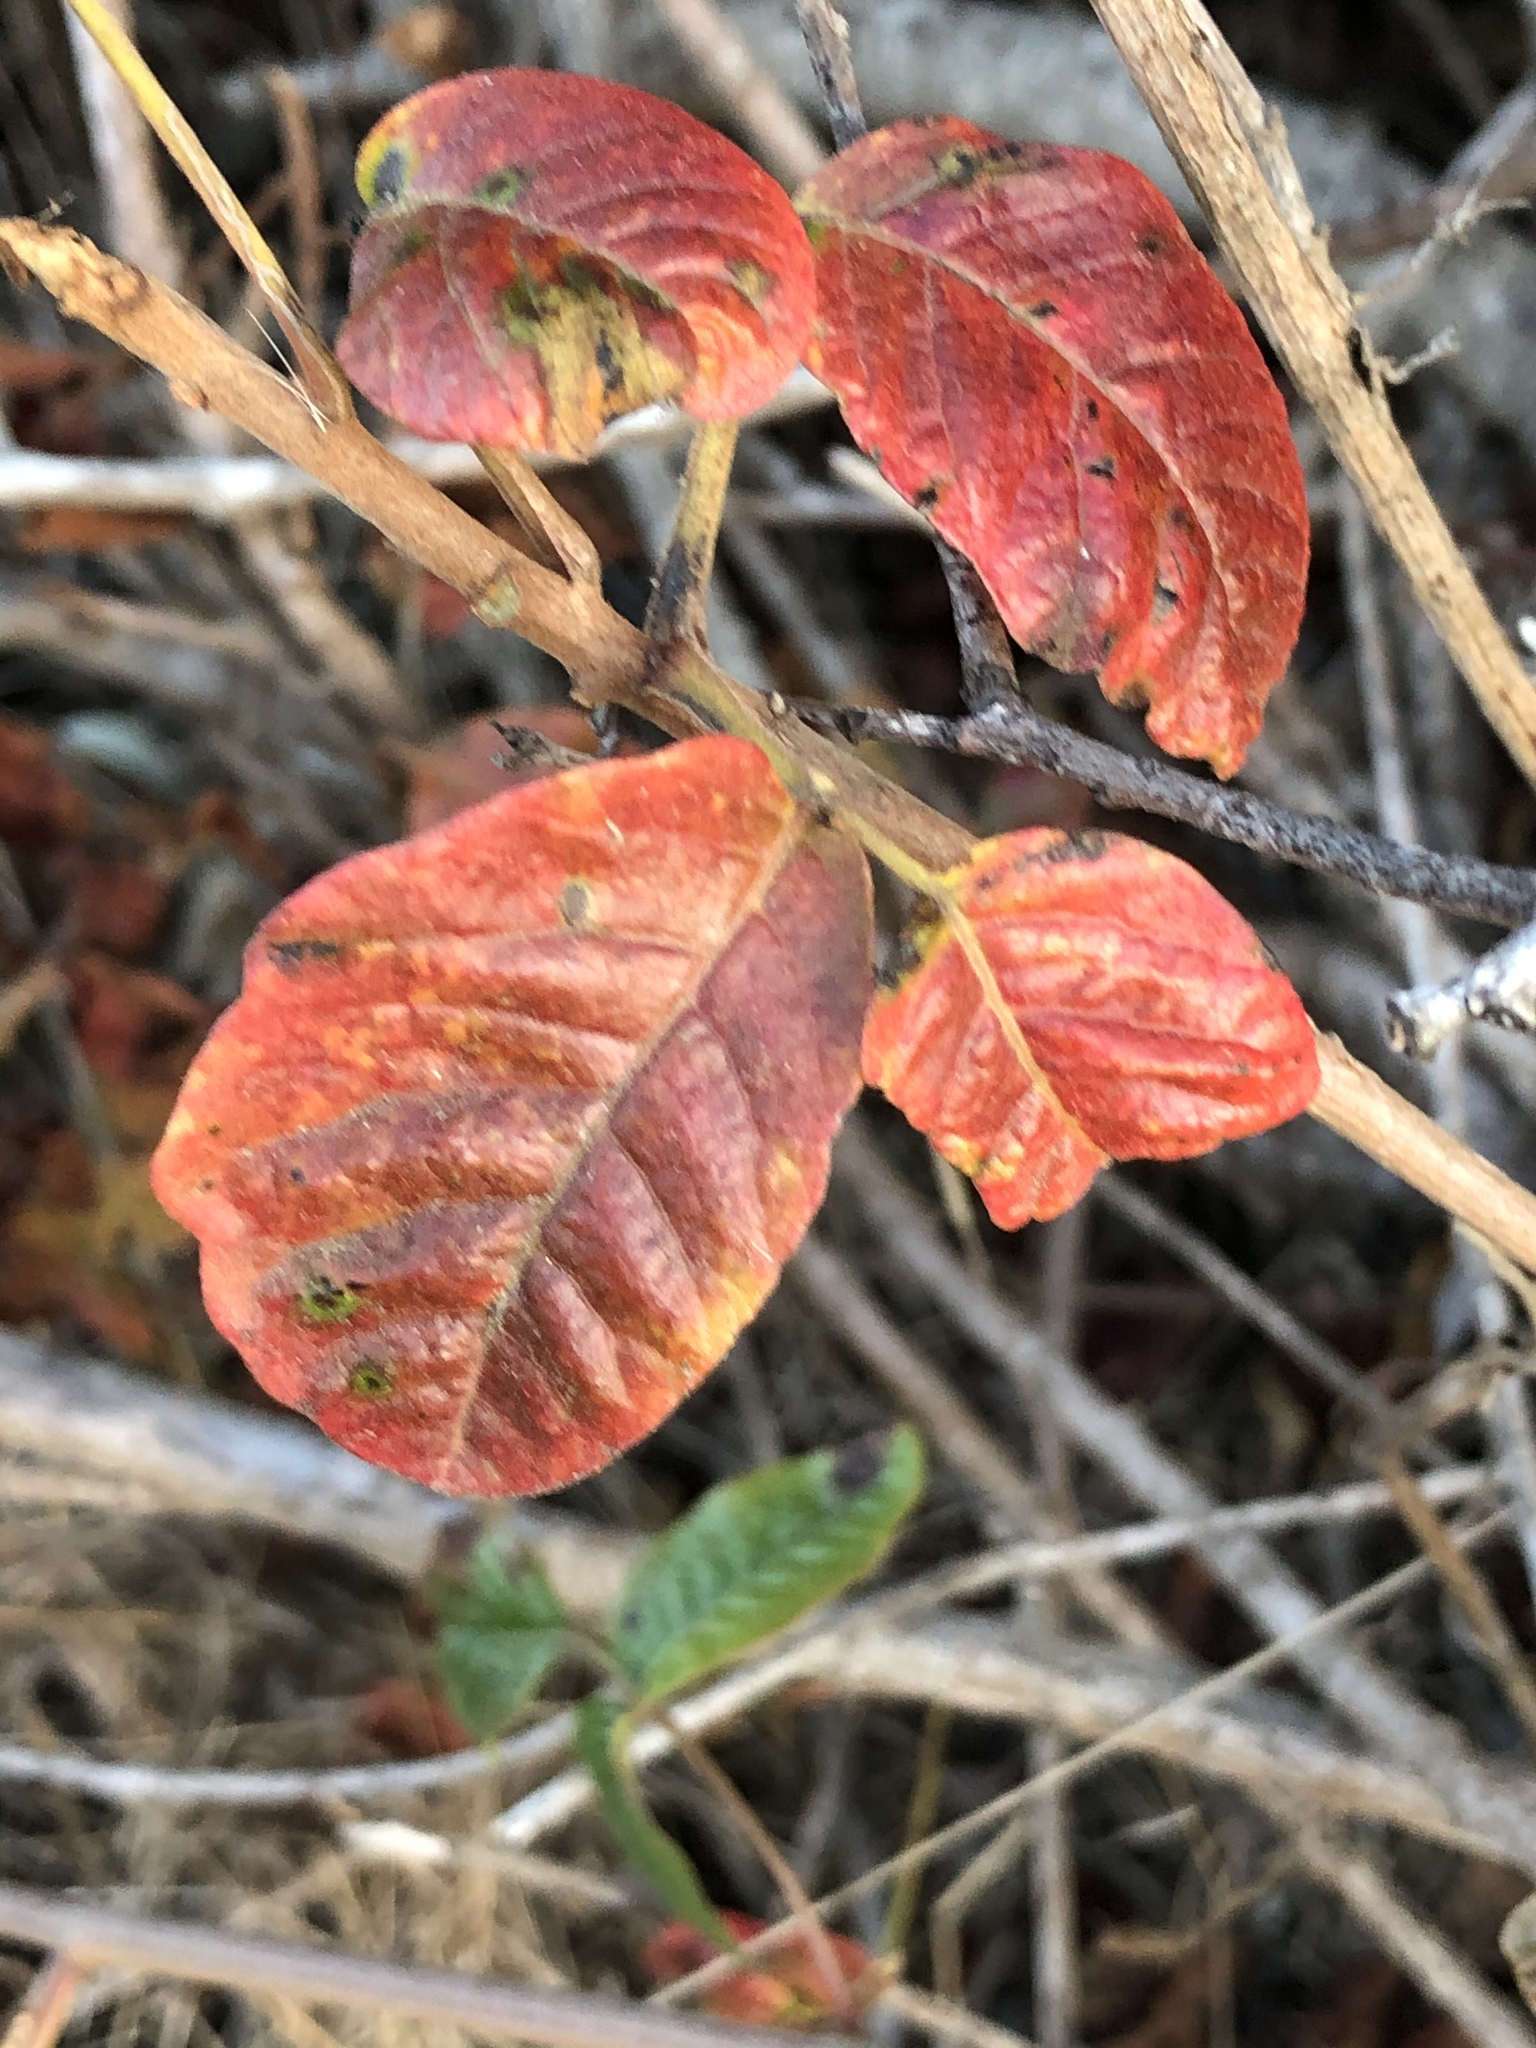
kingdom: Plantae
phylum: Tracheophyta
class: Magnoliopsida
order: Sapindales
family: Anacardiaceae
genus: Toxicodendron
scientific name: Toxicodendron diversilobum
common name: Pacific poison-oak
